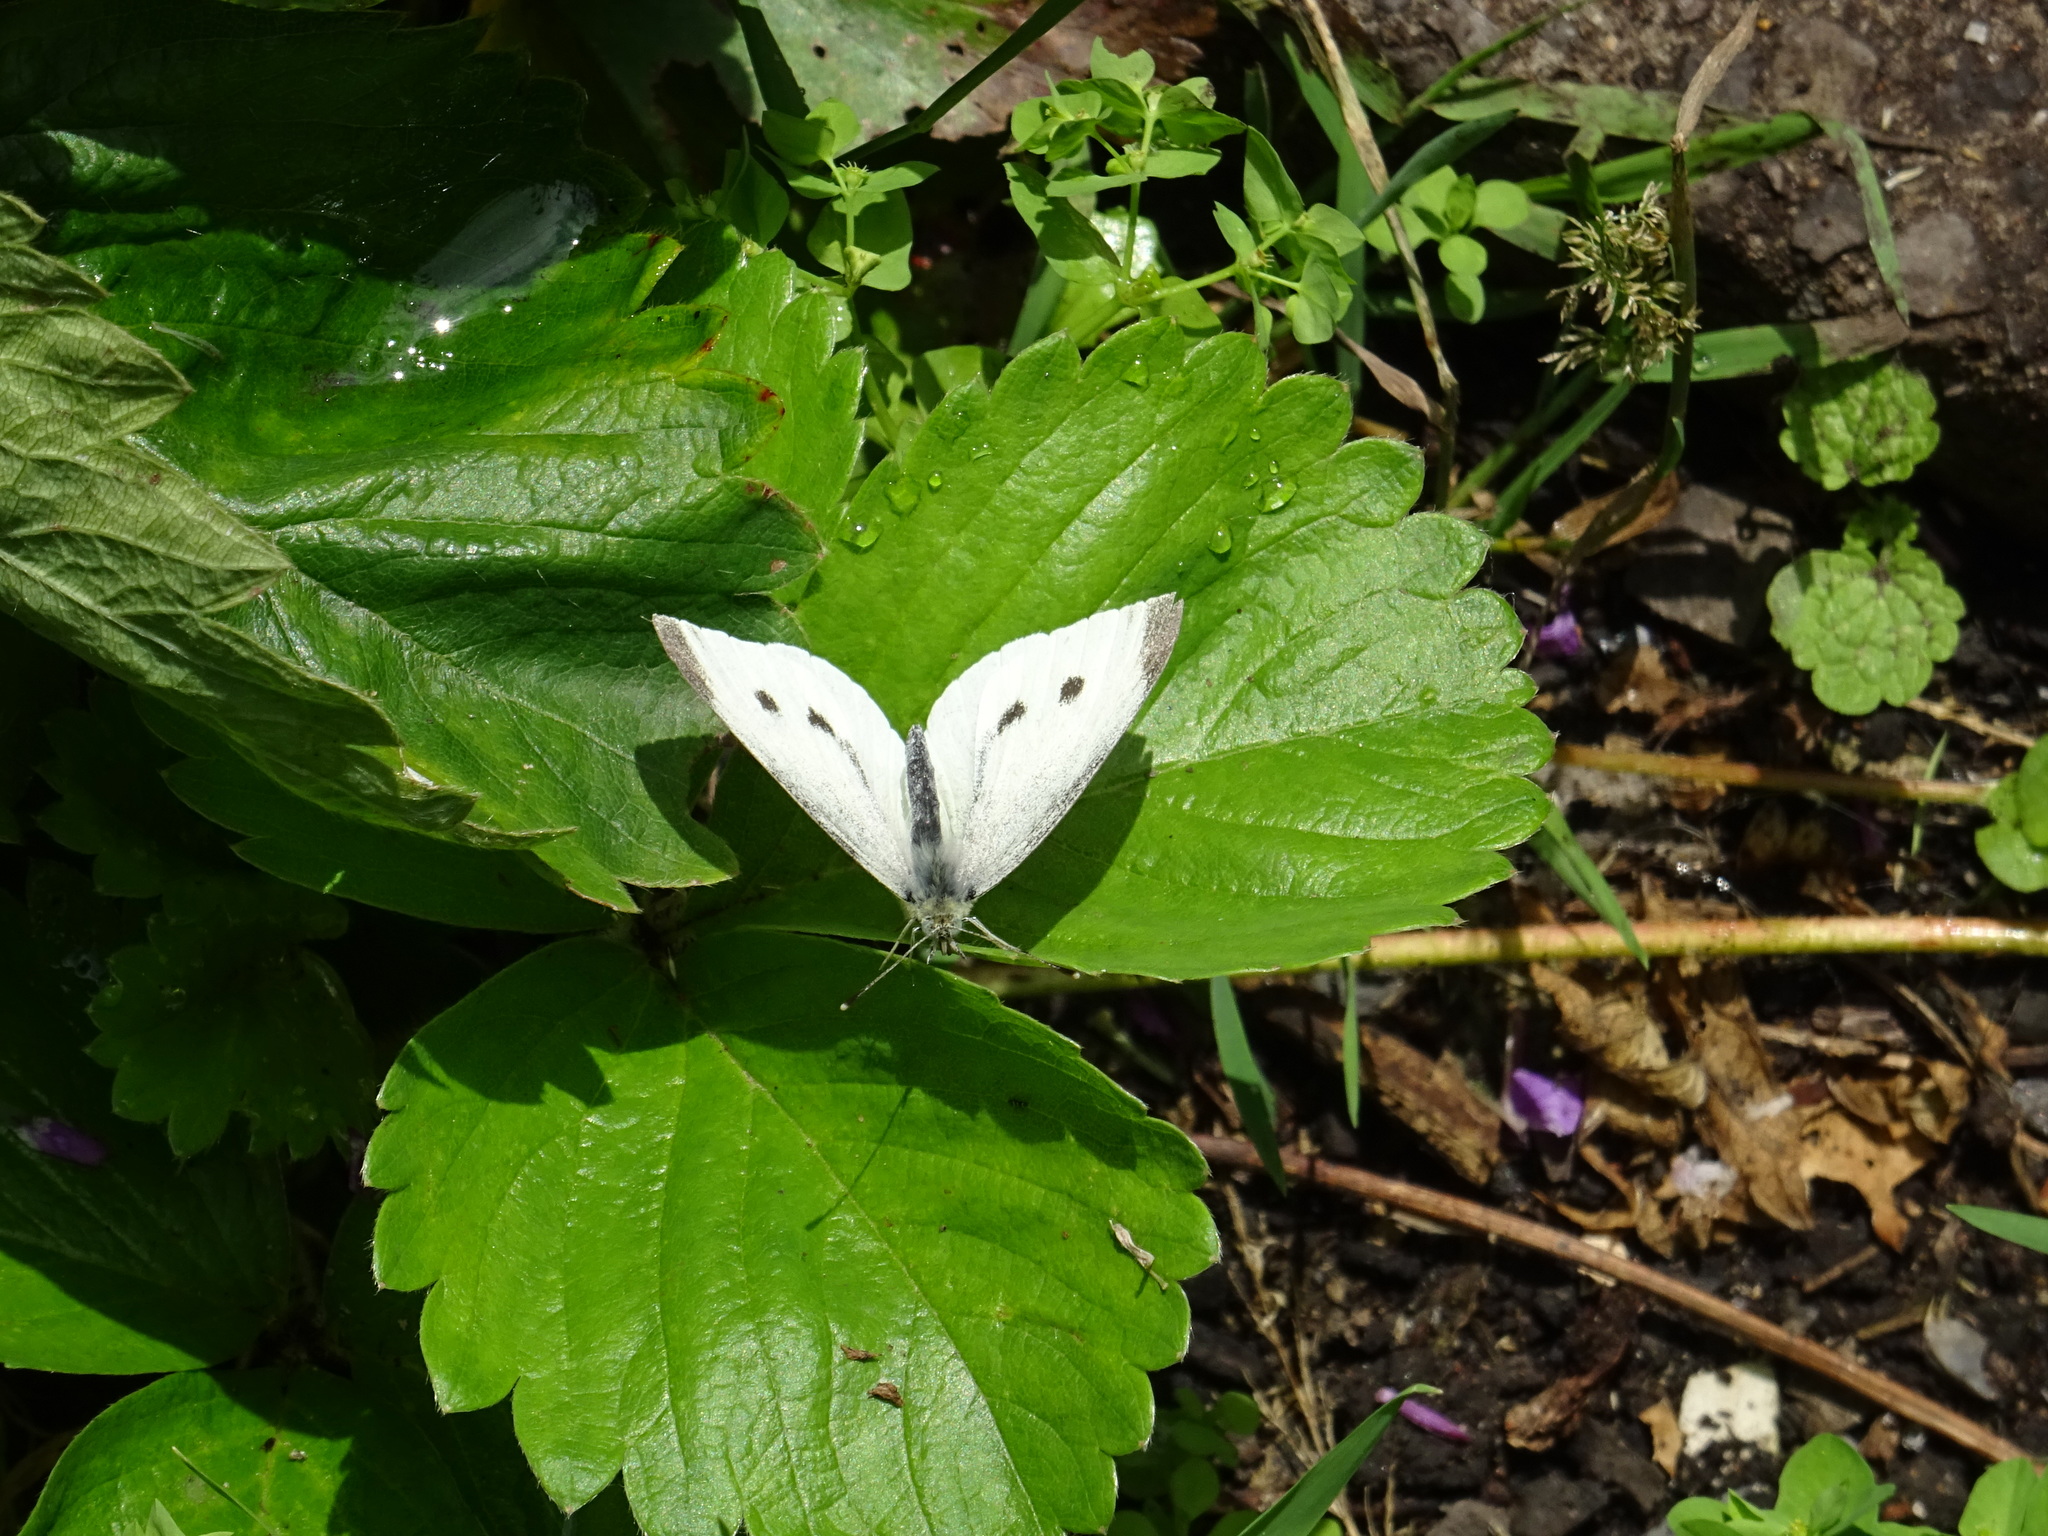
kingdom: Animalia
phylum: Arthropoda
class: Insecta
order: Lepidoptera
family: Pieridae
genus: Pieris
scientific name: Pieris rapae
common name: Small white
